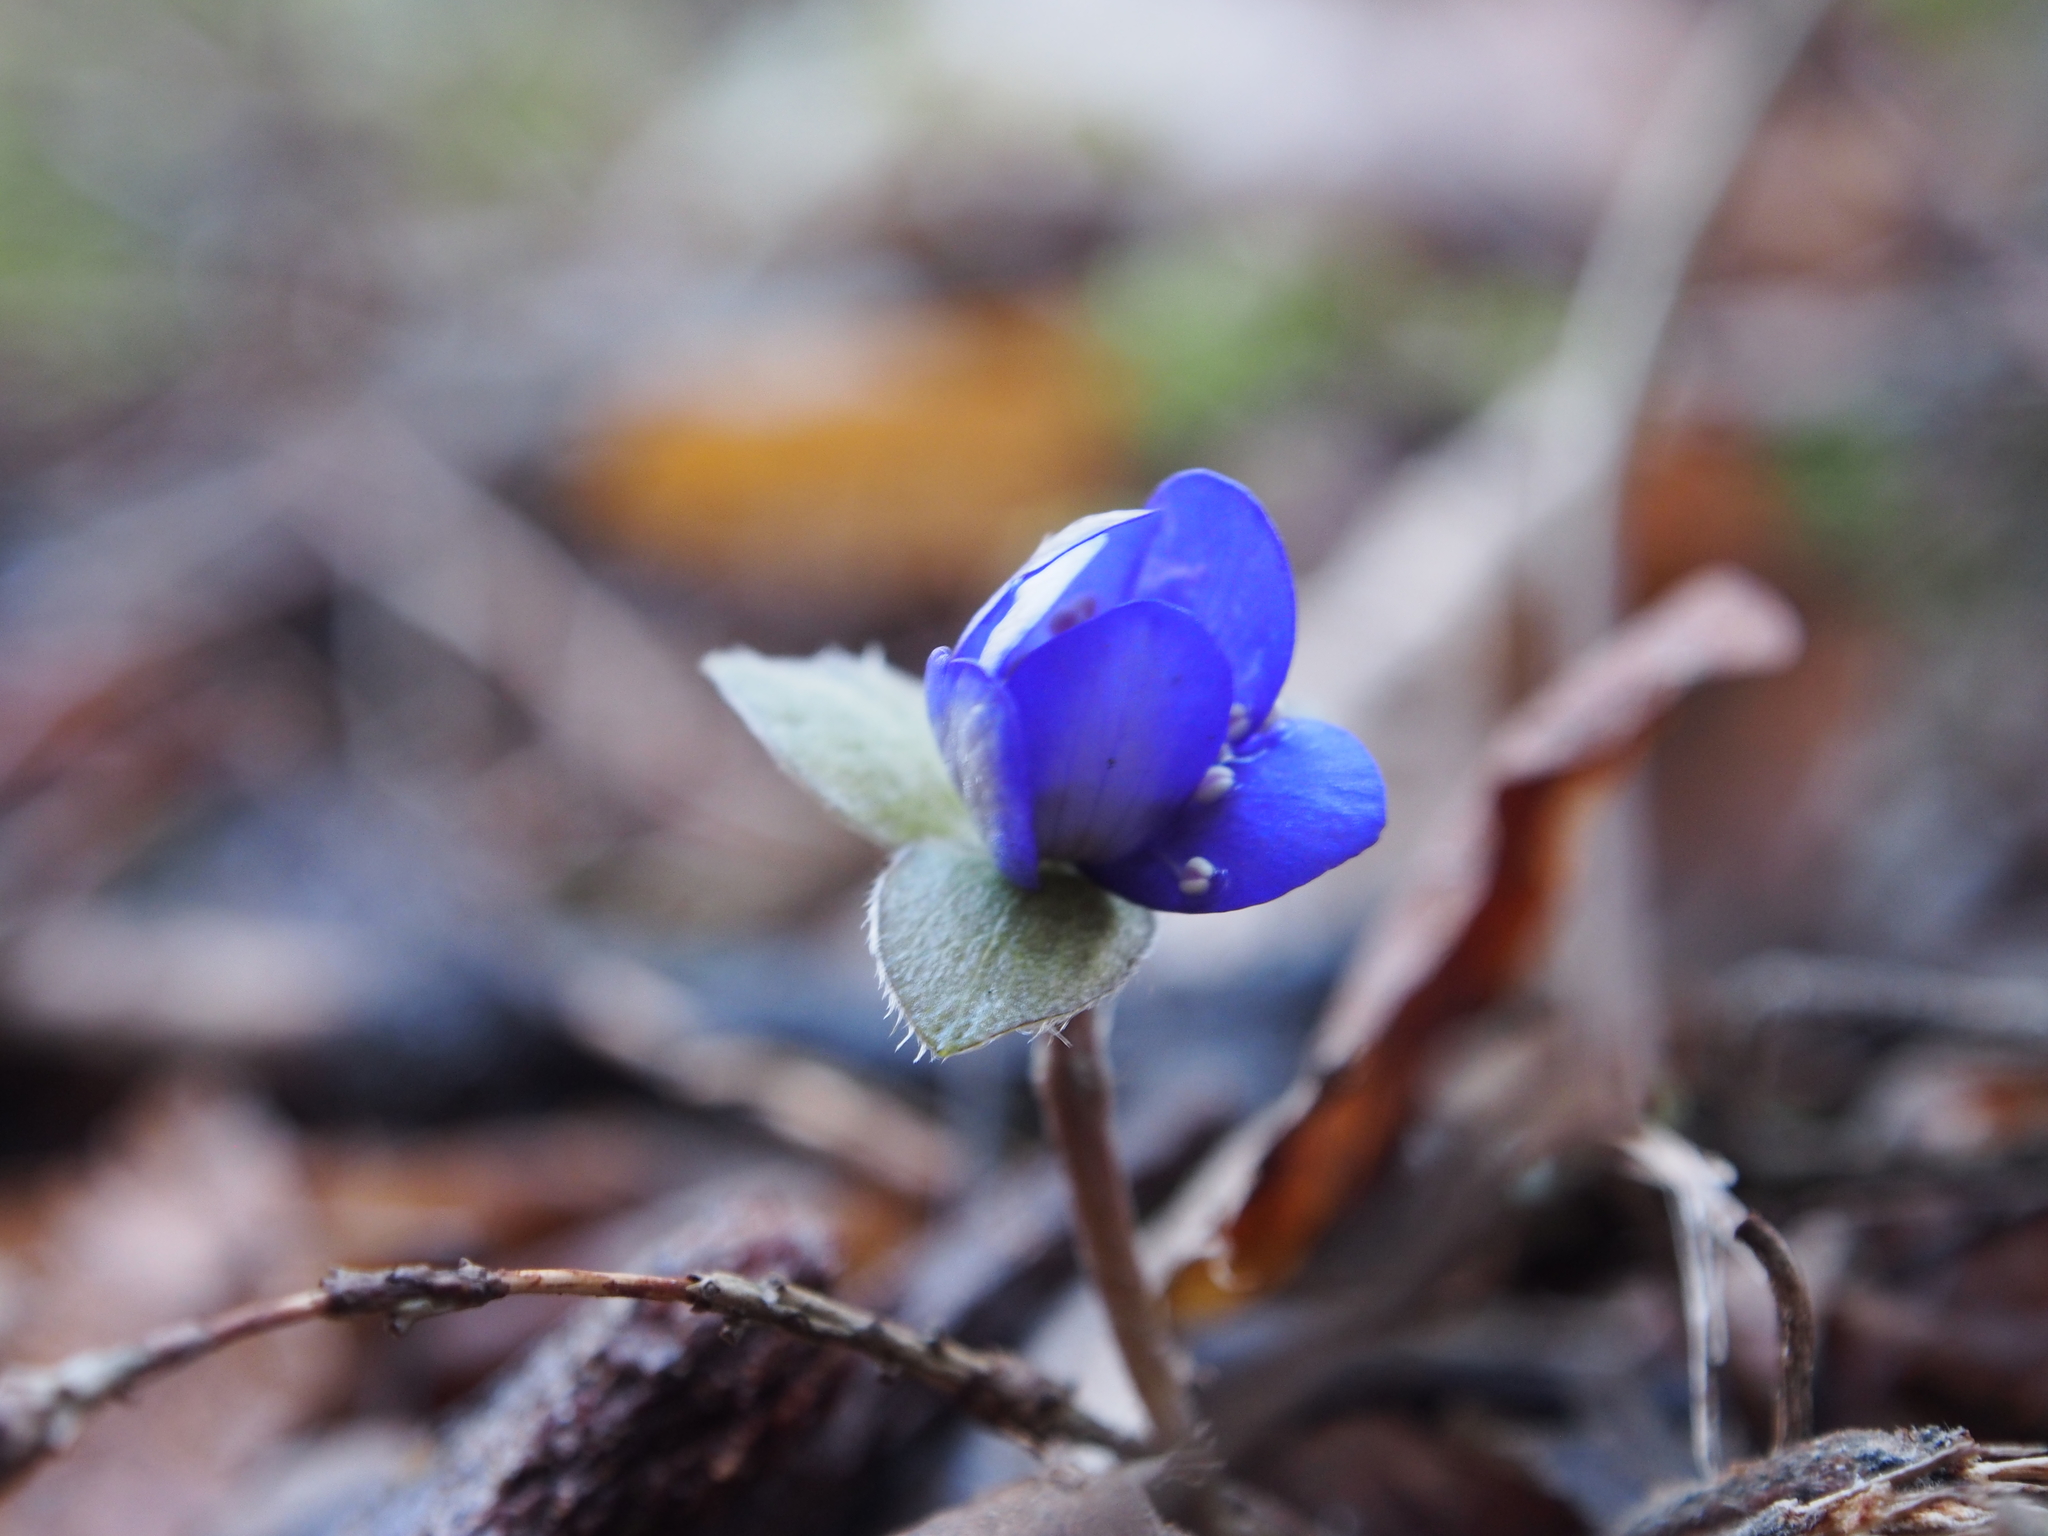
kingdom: Plantae
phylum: Tracheophyta
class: Magnoliopsida
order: Ranunculales
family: Ranunculaceae
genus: Hepatica
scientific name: Hepatica nobilis
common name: Liverleaf
